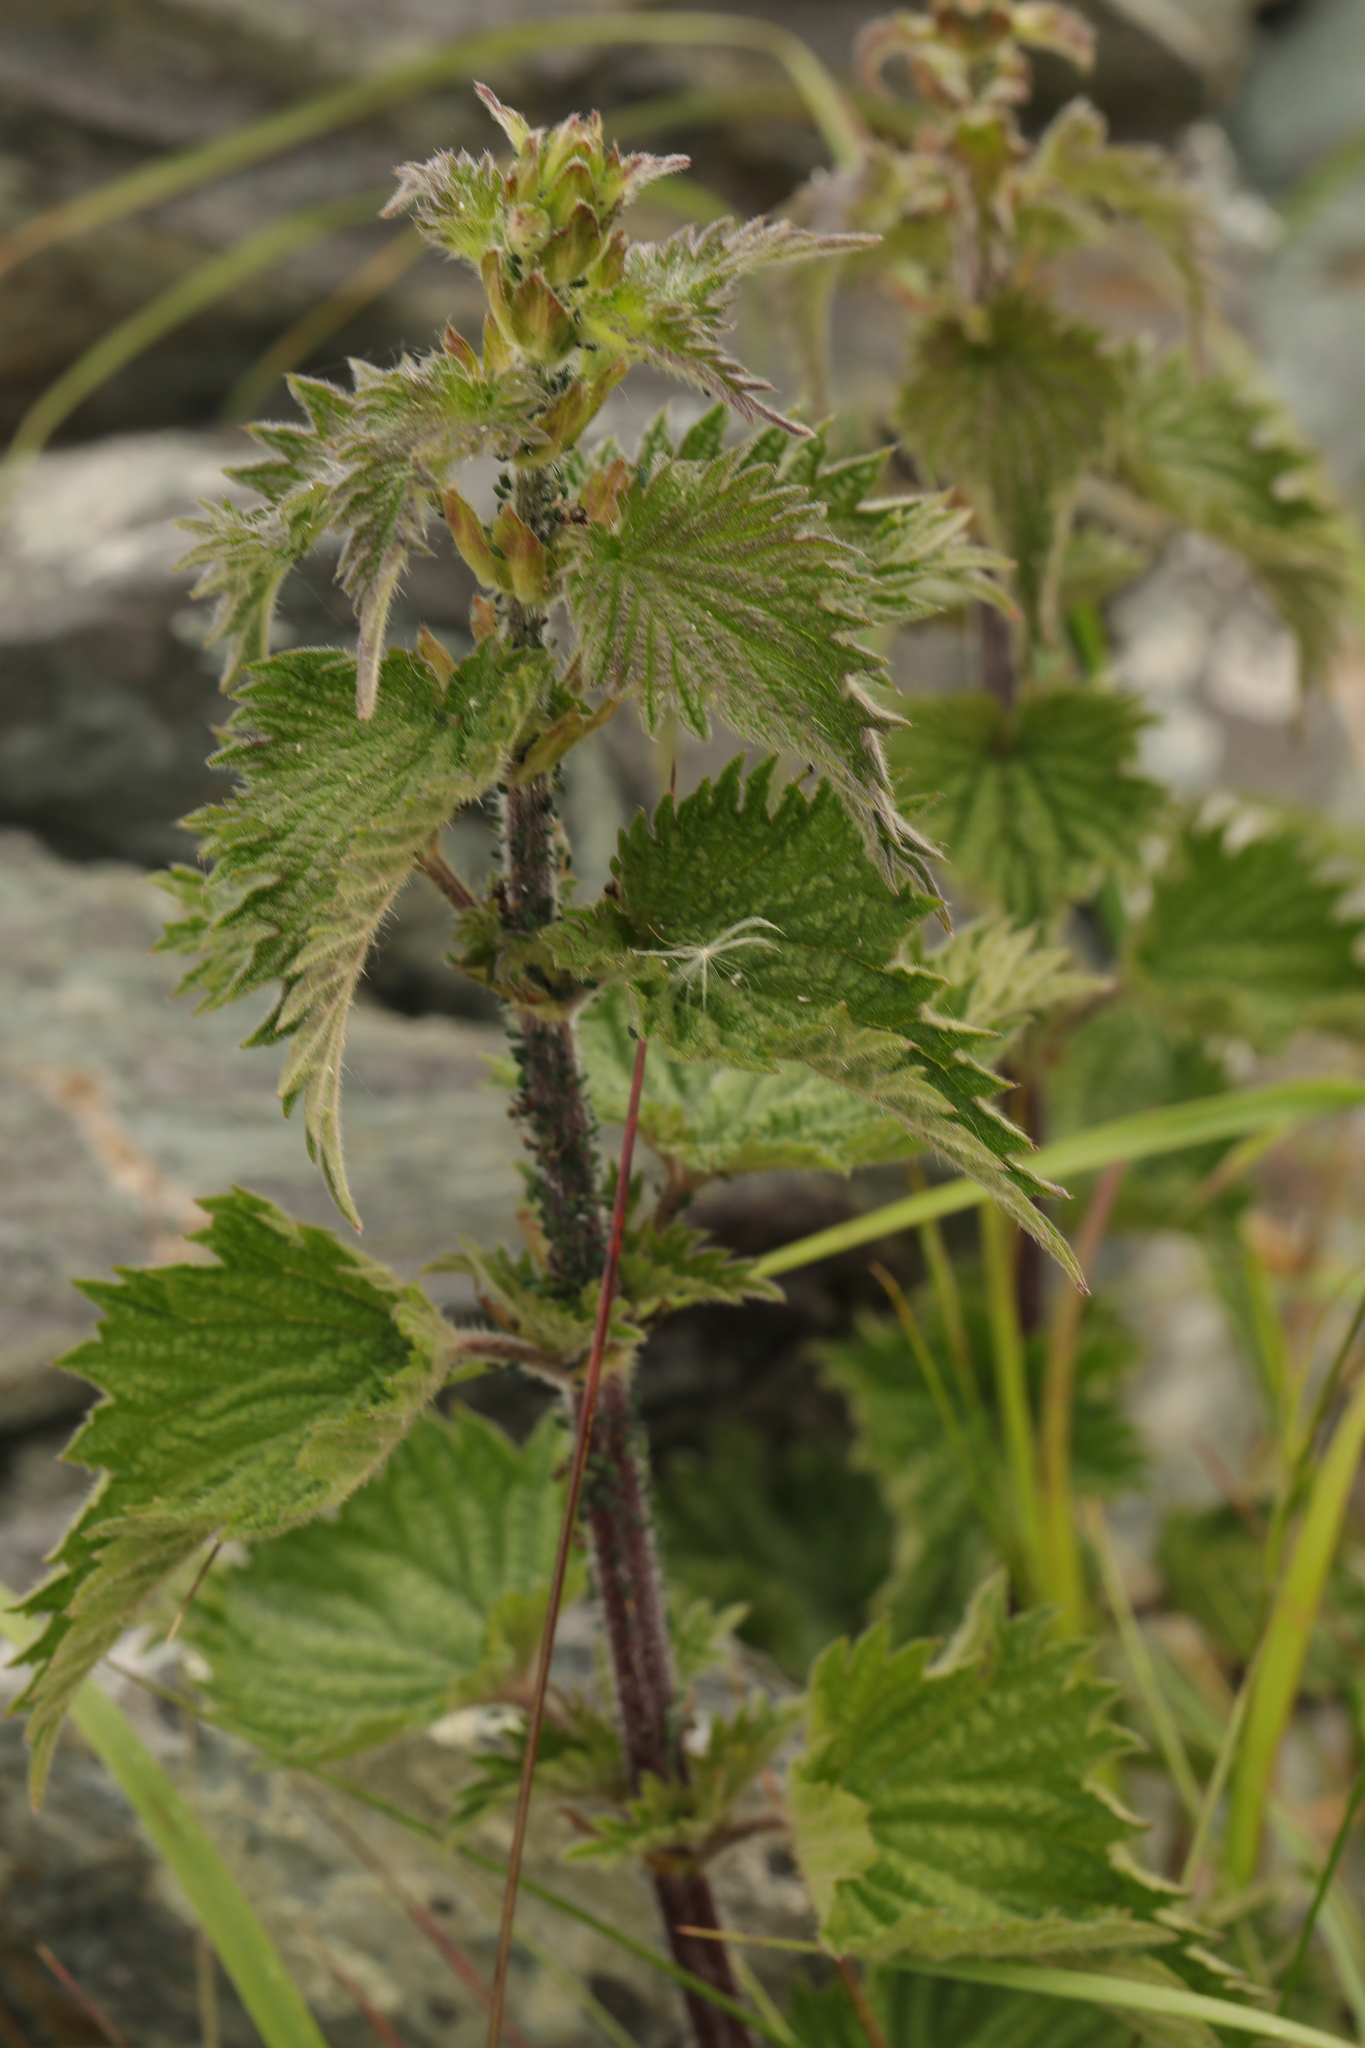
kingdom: Plantae
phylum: Tracheophyta
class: Magnoliopsida
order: Rosales
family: Urticaceae
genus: Urtica
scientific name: Urtica dioica
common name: Common nettle
